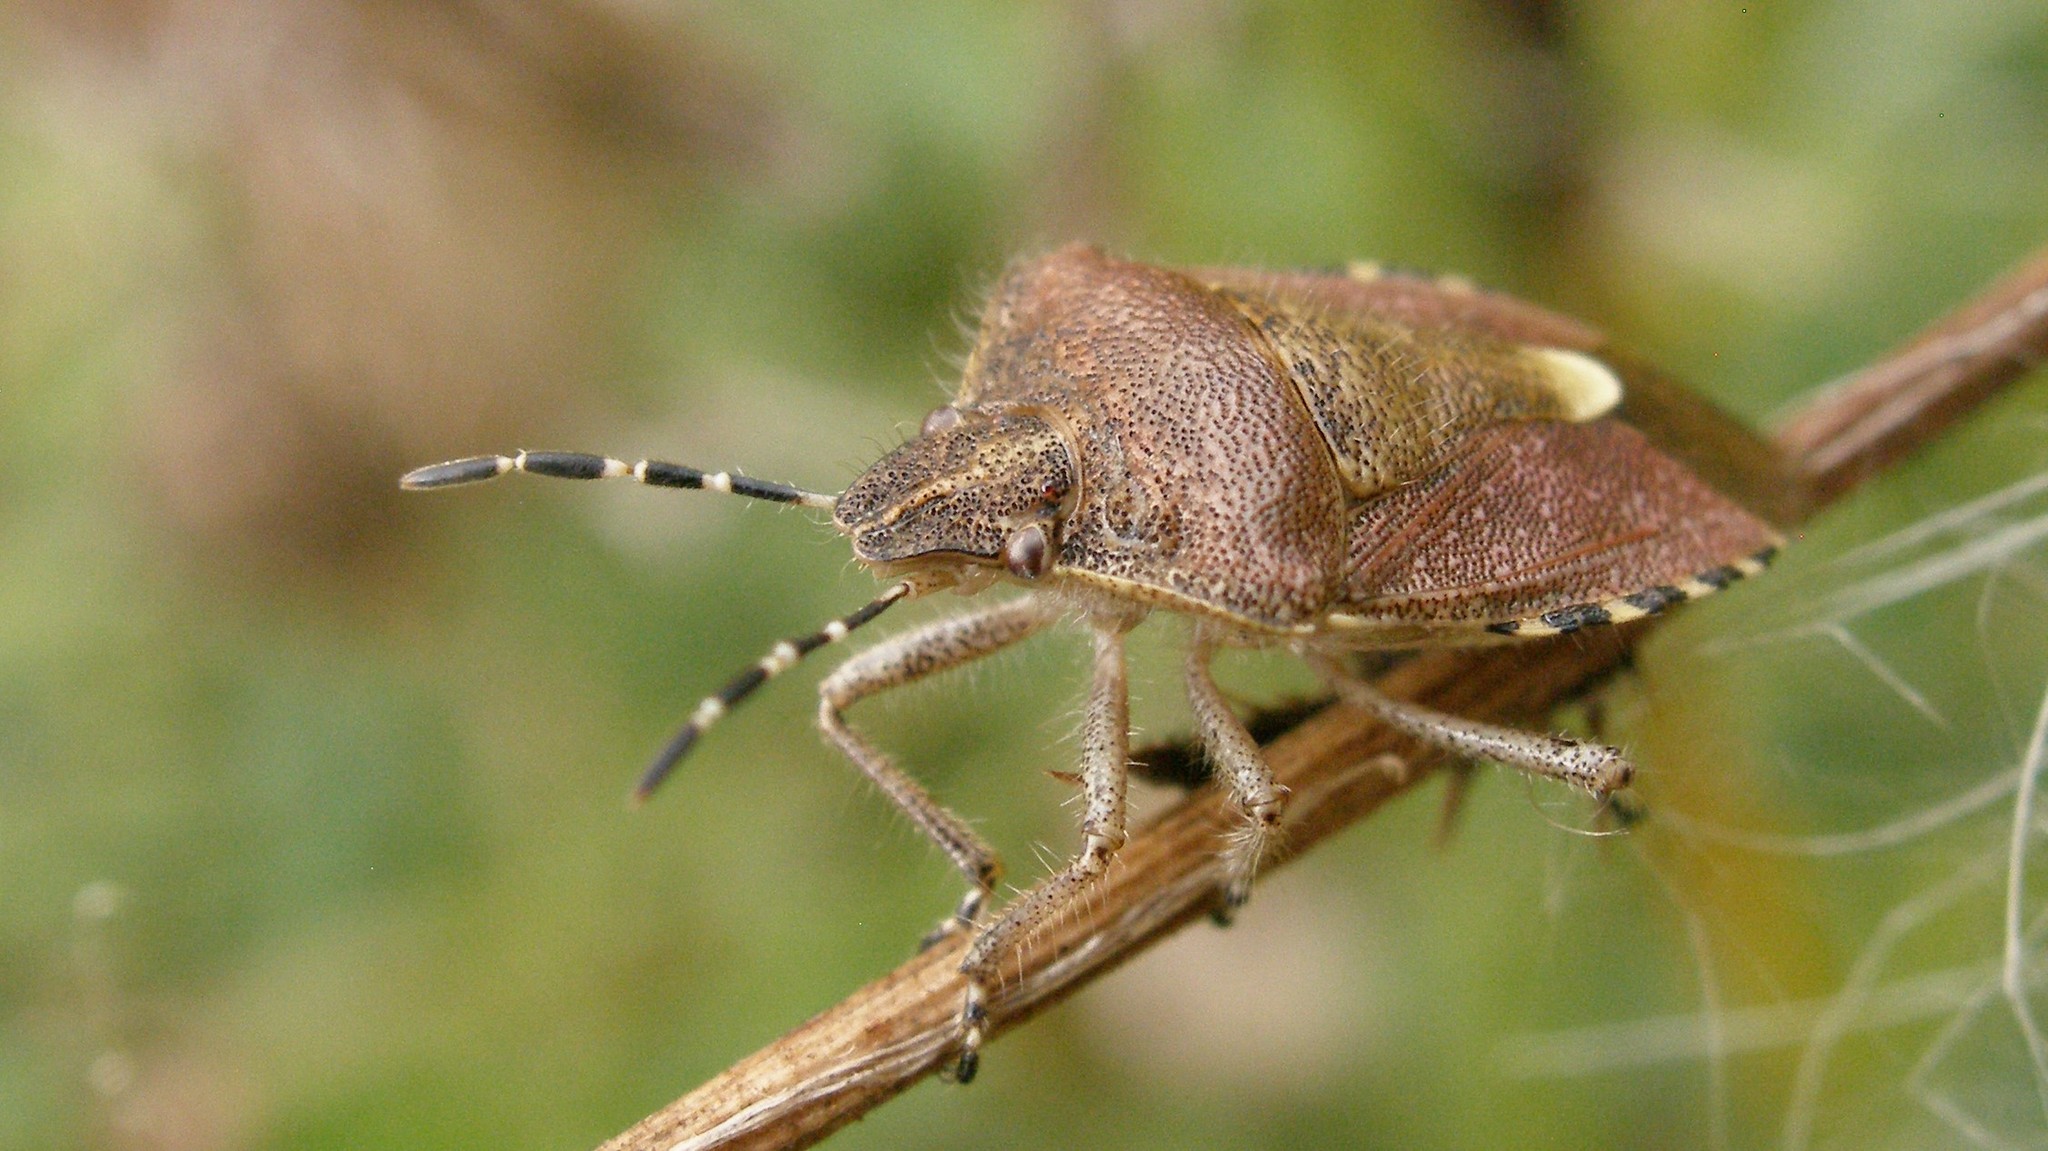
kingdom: Animalia
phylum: Arthropoda
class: Insecta
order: Hemiptera
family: Pentatomidae
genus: Dolycoris
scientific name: Dolycoris baccarum
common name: Sloe bug
